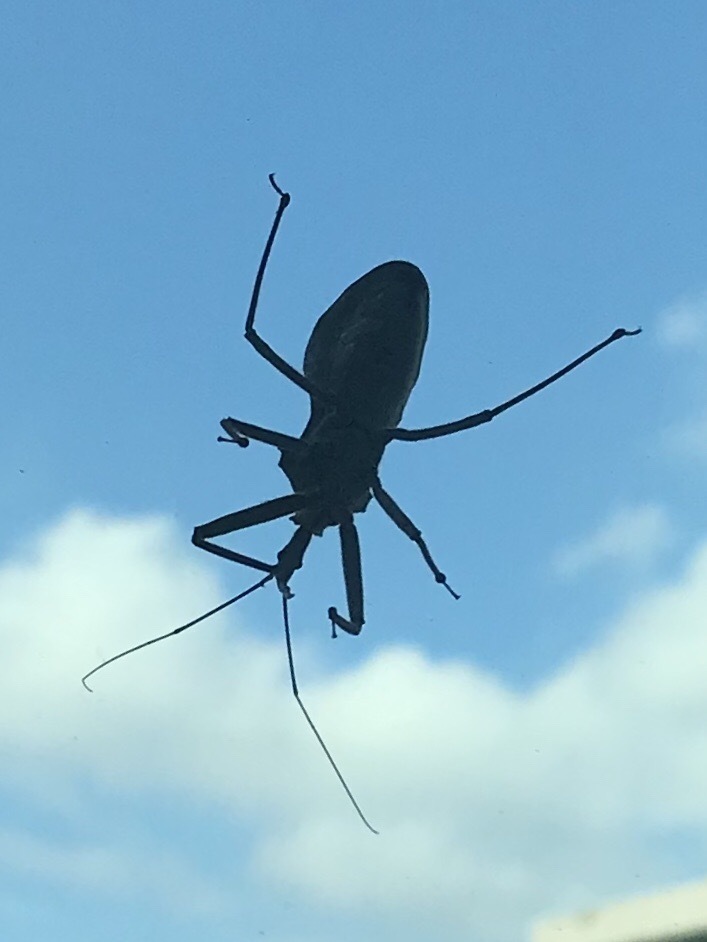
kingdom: Animalia
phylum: Arthropoda
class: Insecta
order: Hemiptera
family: Reduviidae
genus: Arilus
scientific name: Arilus cristatus
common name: North american wheel bug
